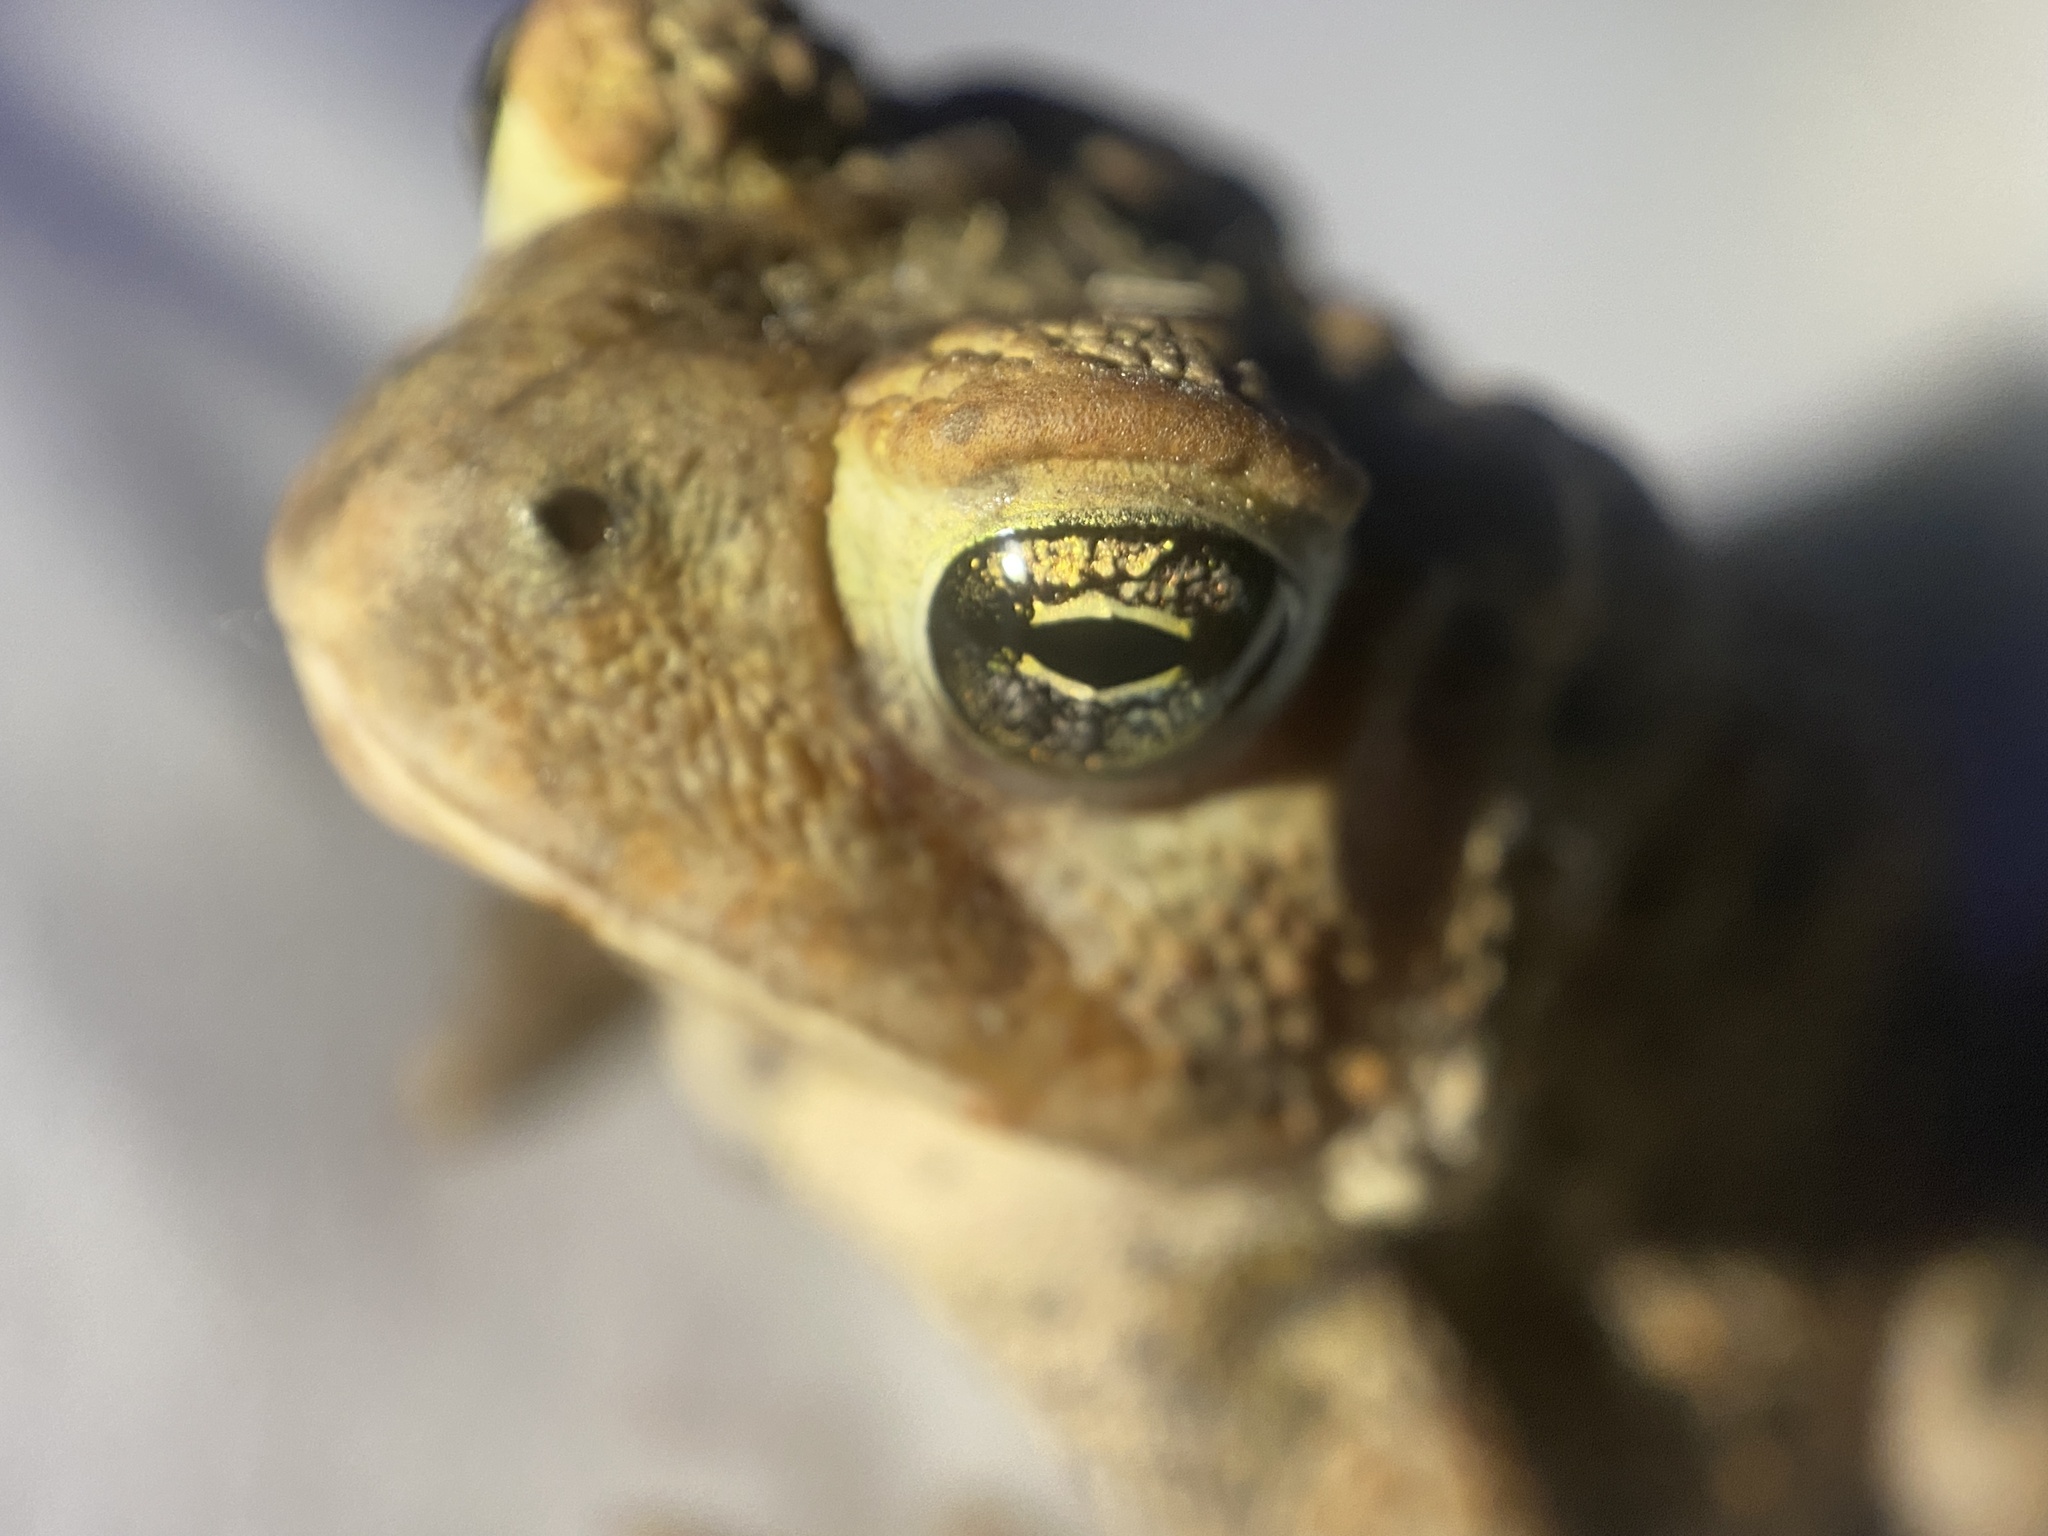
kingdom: Animalia
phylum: Chordata
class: Amphibia
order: Anura
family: Bufonidae
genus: Anaxyrus
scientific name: Anaxyrus americanus
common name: American toad
